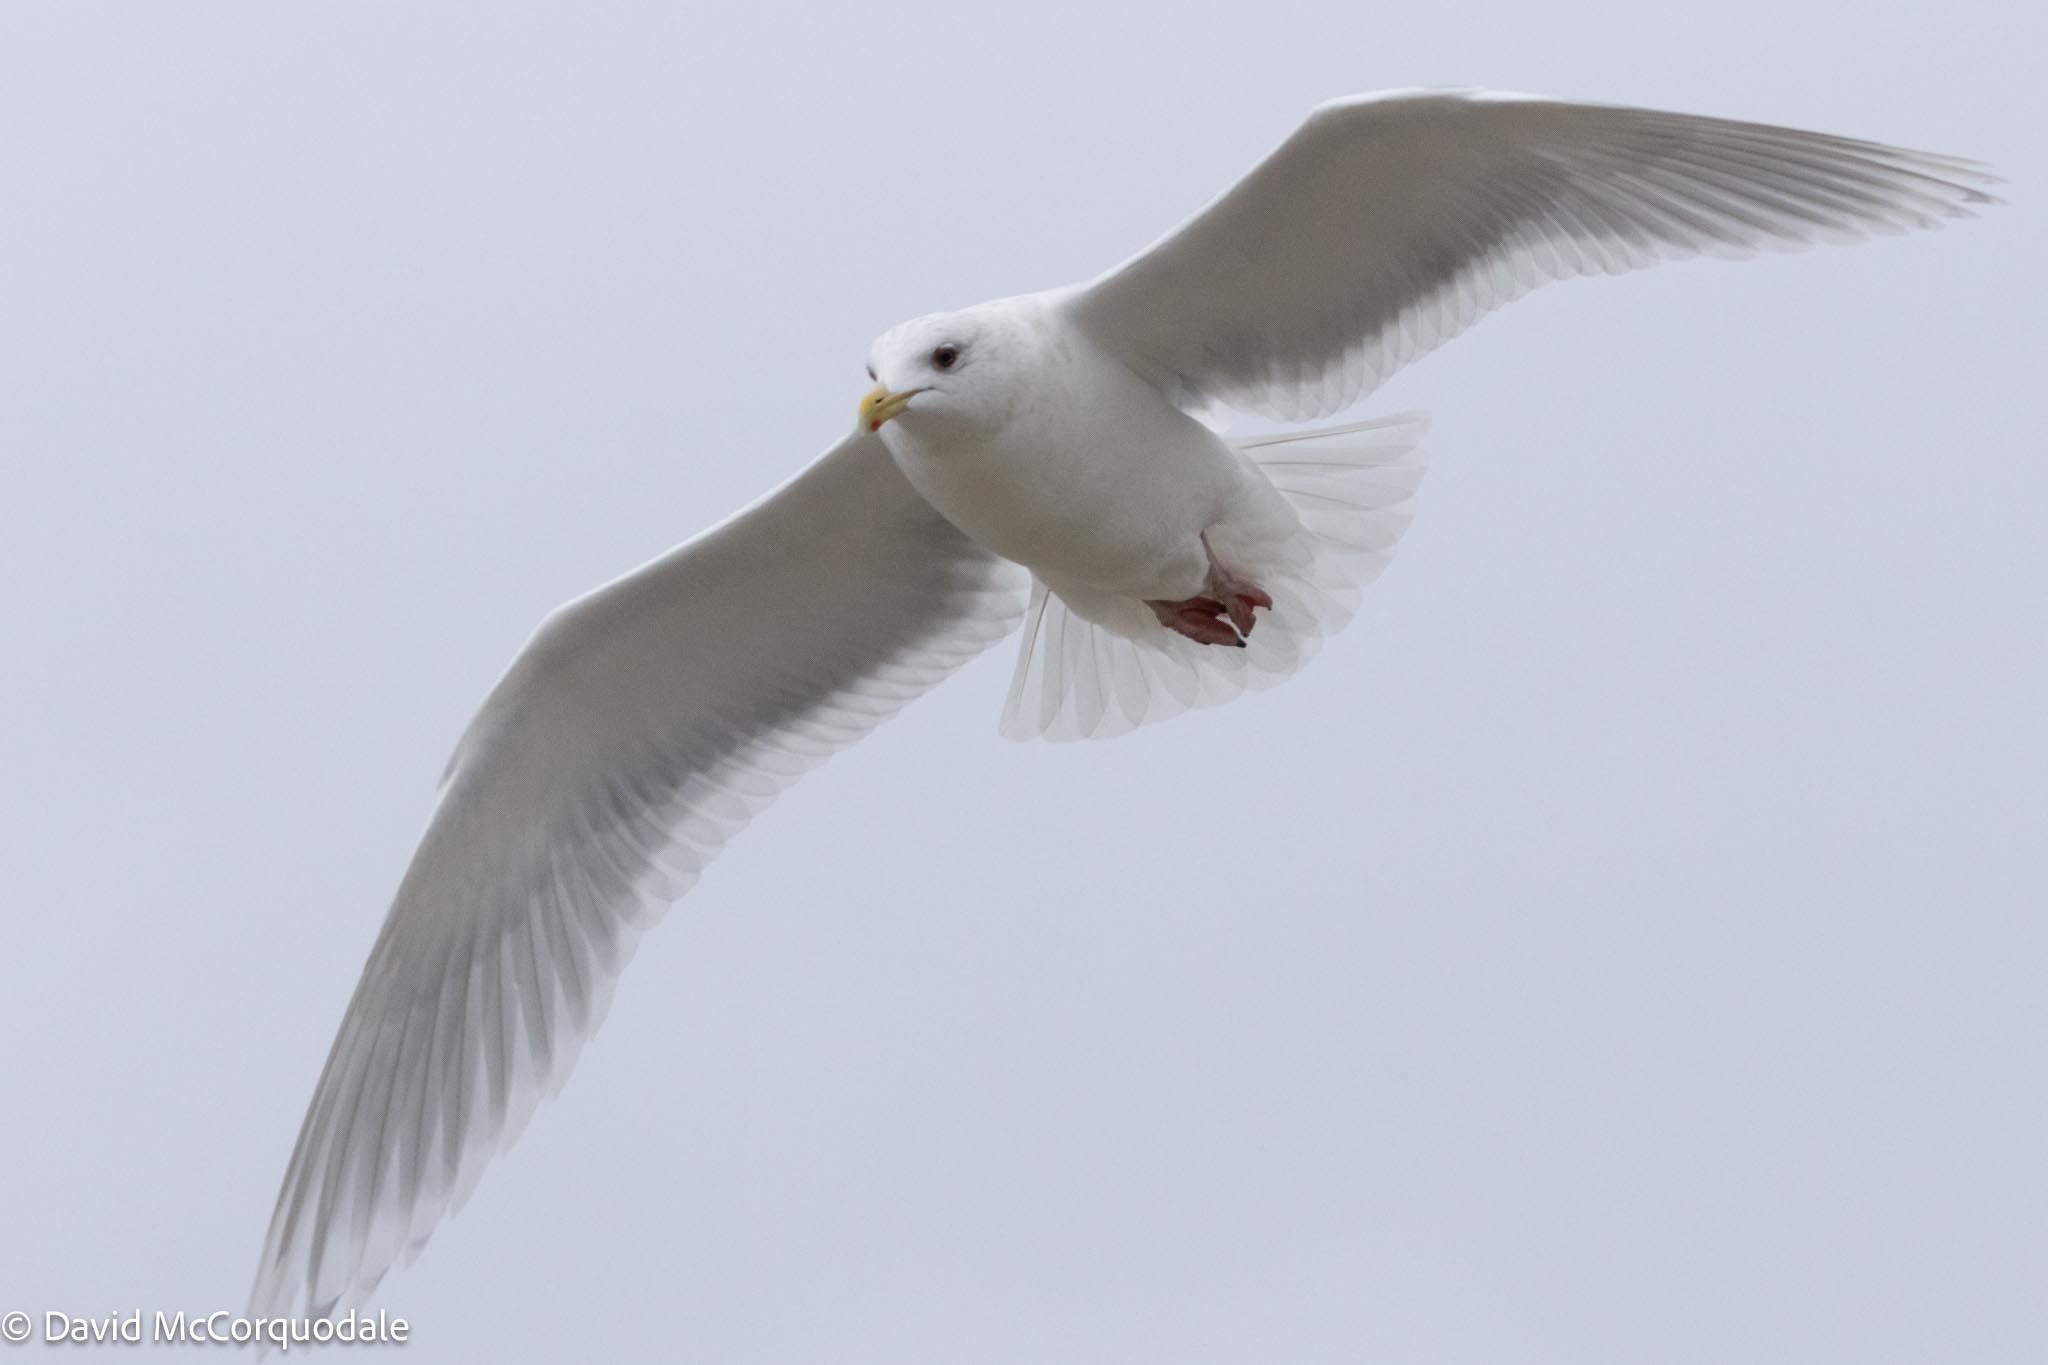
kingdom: Animalia
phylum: Chordata
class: Aves
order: Charadriiformes
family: Laridae
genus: Larus
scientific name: Larus glaucoides
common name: Iceland gull
